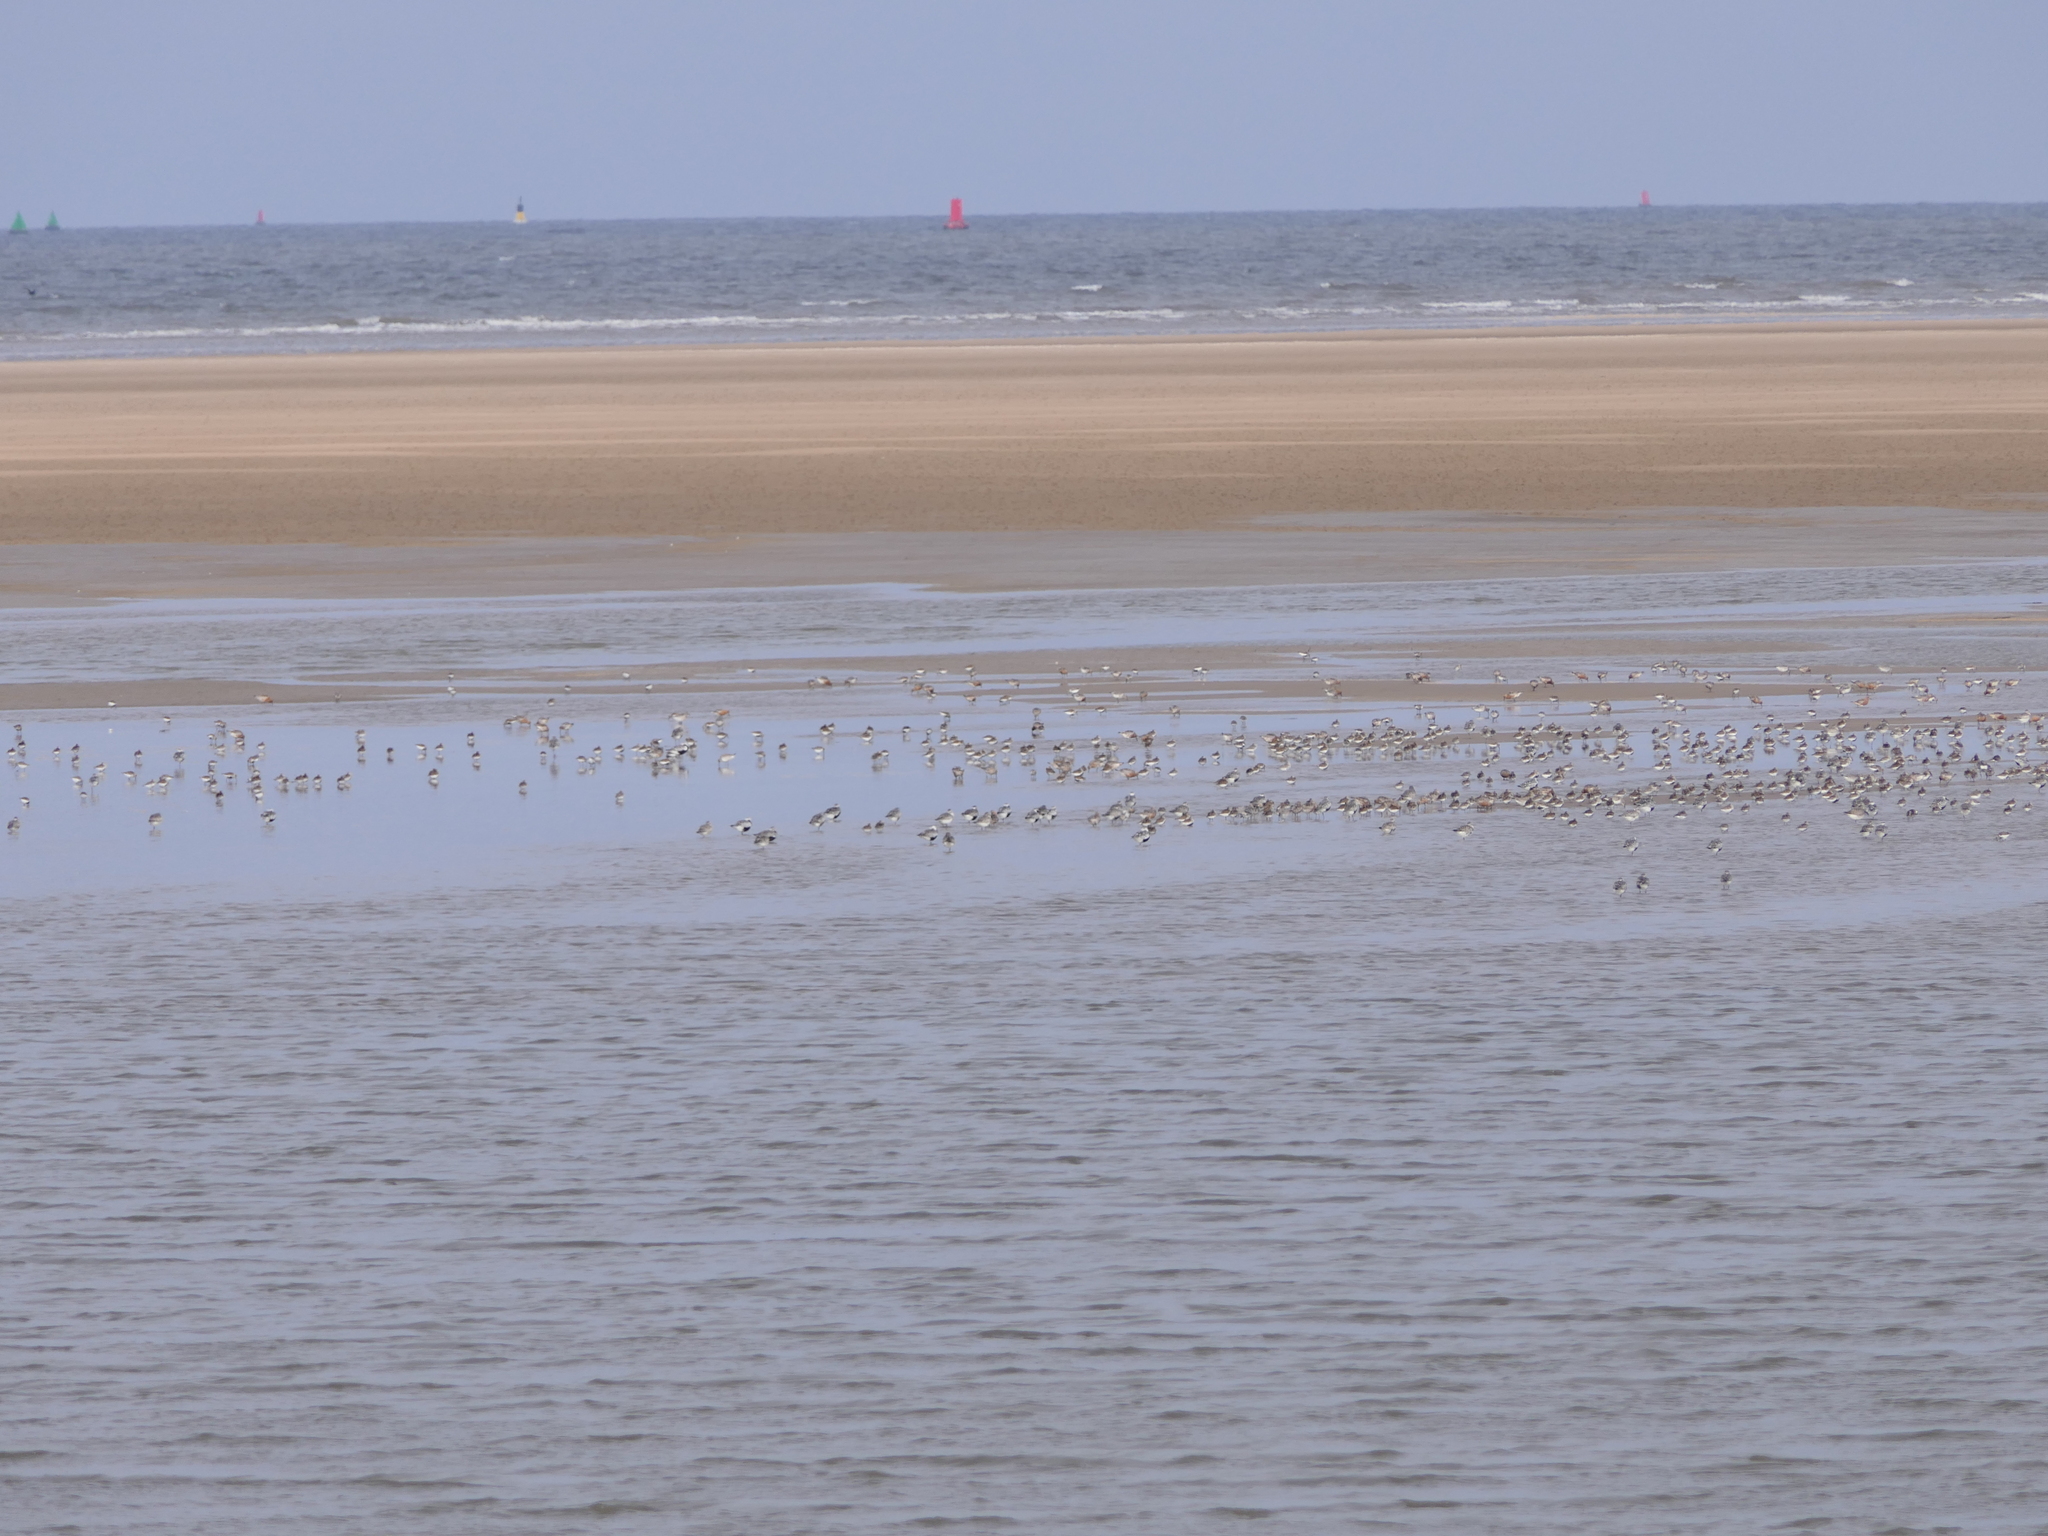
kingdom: Animalia
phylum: Chordata
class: Aves
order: Charadriiformes
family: Scolopacidae
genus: Calidris
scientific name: Calidris canutus
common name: Red knot
